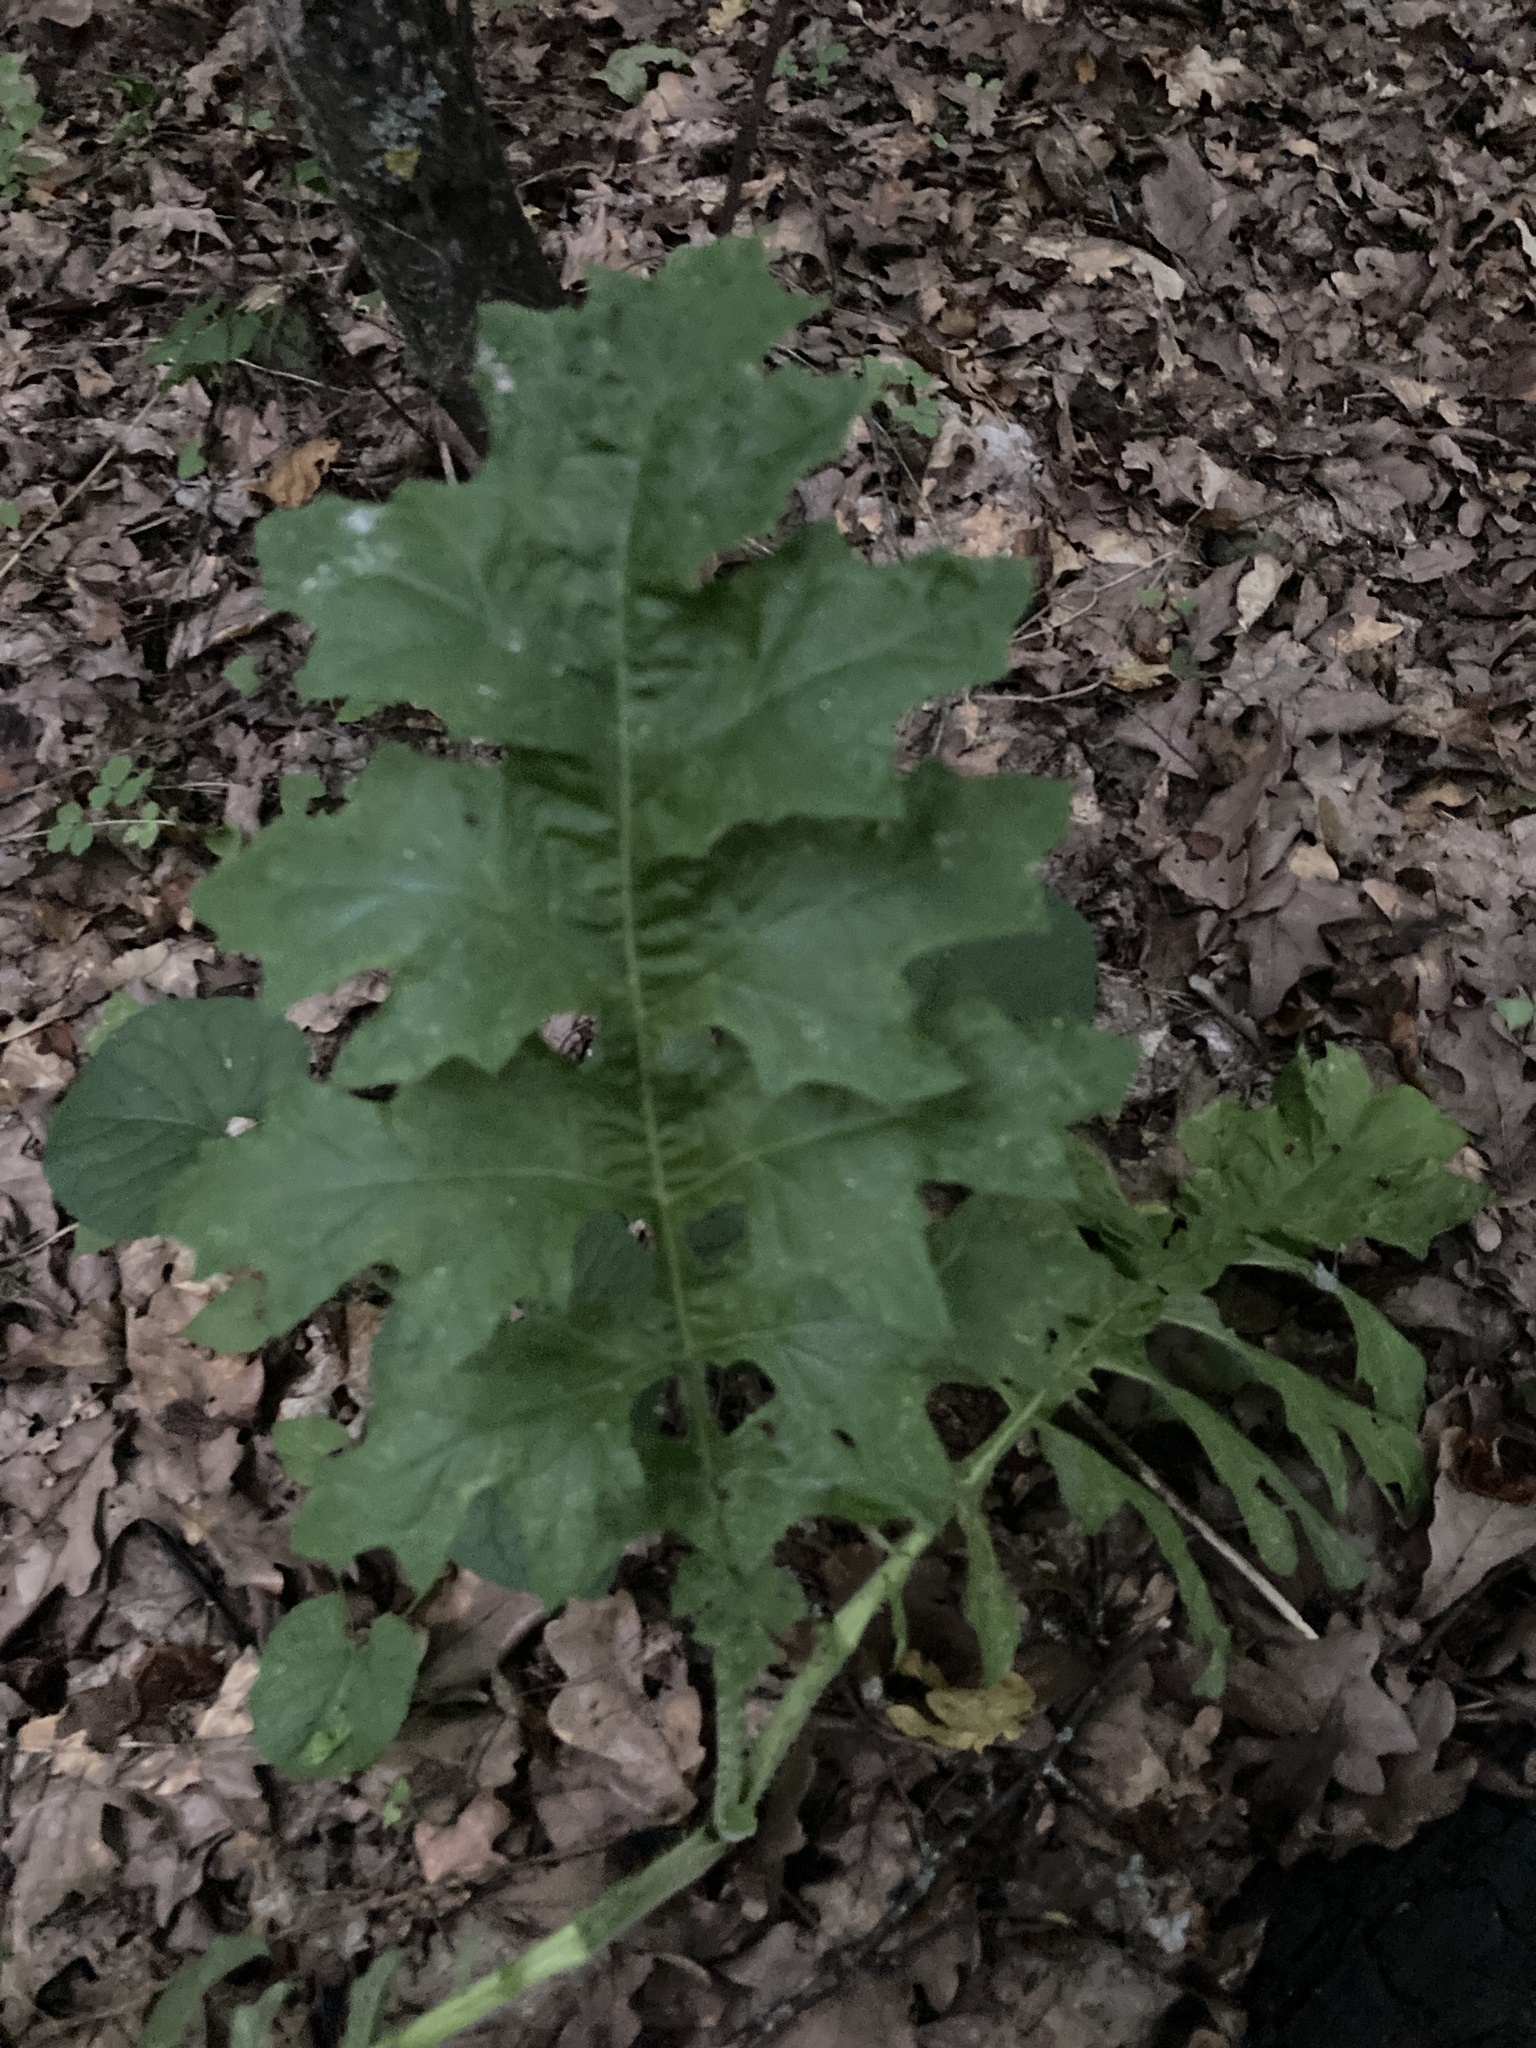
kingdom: Plantae
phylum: Tracheophyta
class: Magnoliopsida
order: Asterales
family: Asteraceae
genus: Lactuca
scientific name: Lactuca quercina
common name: Wild lettuce
